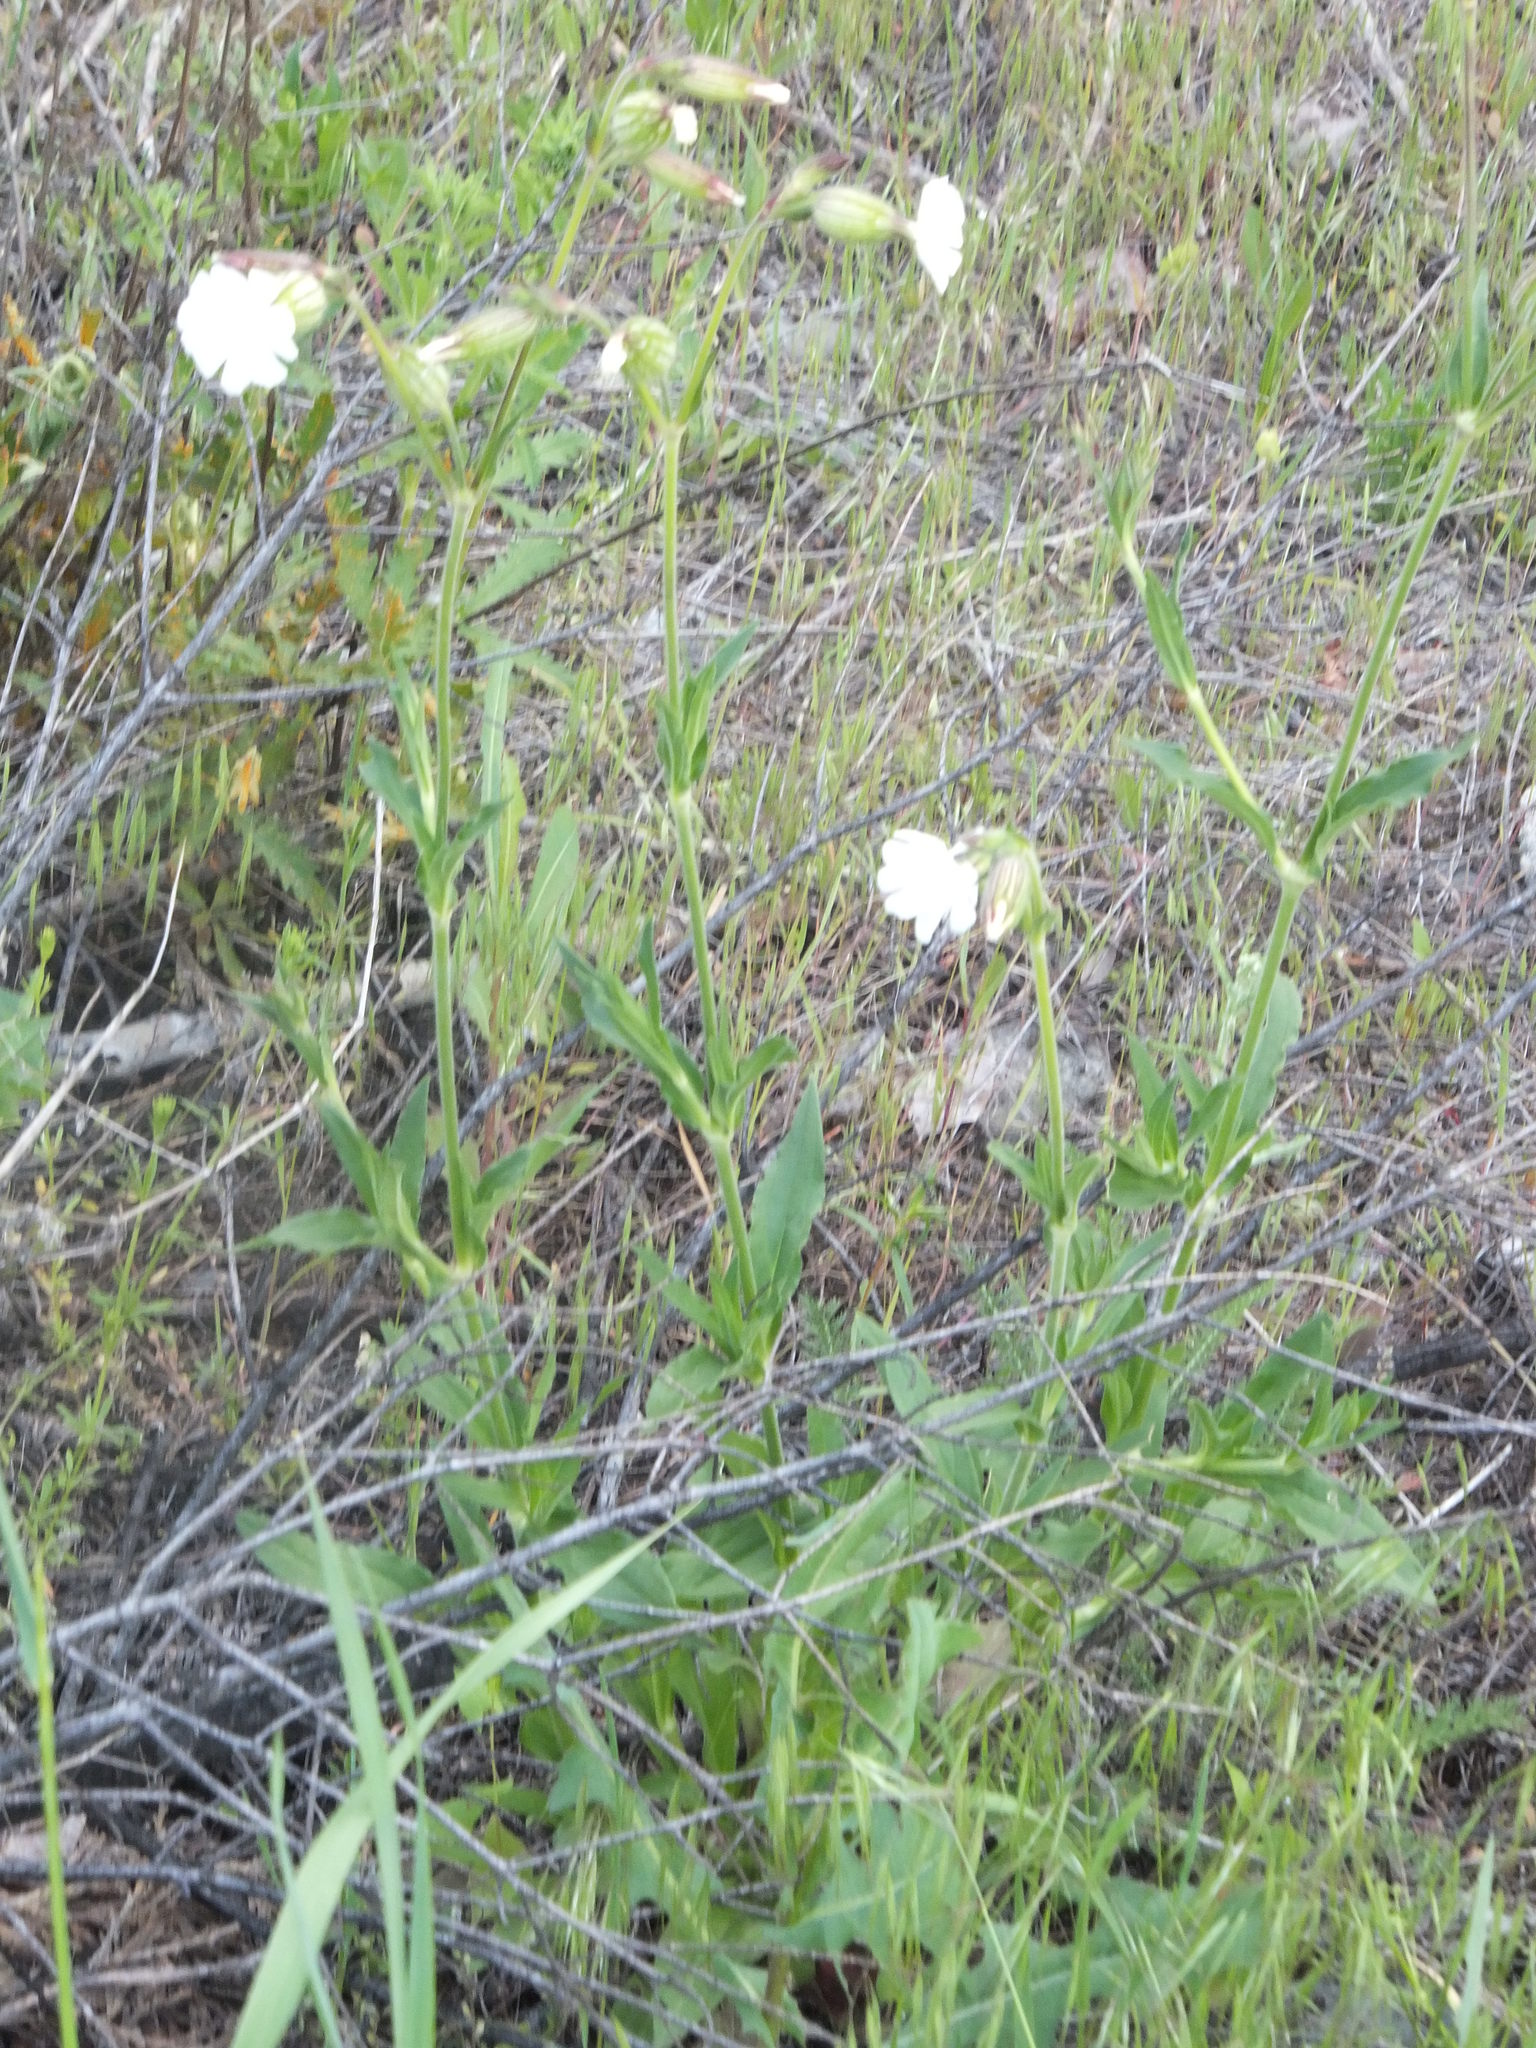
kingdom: Plantae
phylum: Tracheophyta
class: Magnoliopsida
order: Caryophyllales
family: Caryophyllaceae
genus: Silene
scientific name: Silene latifolia
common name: White campion
